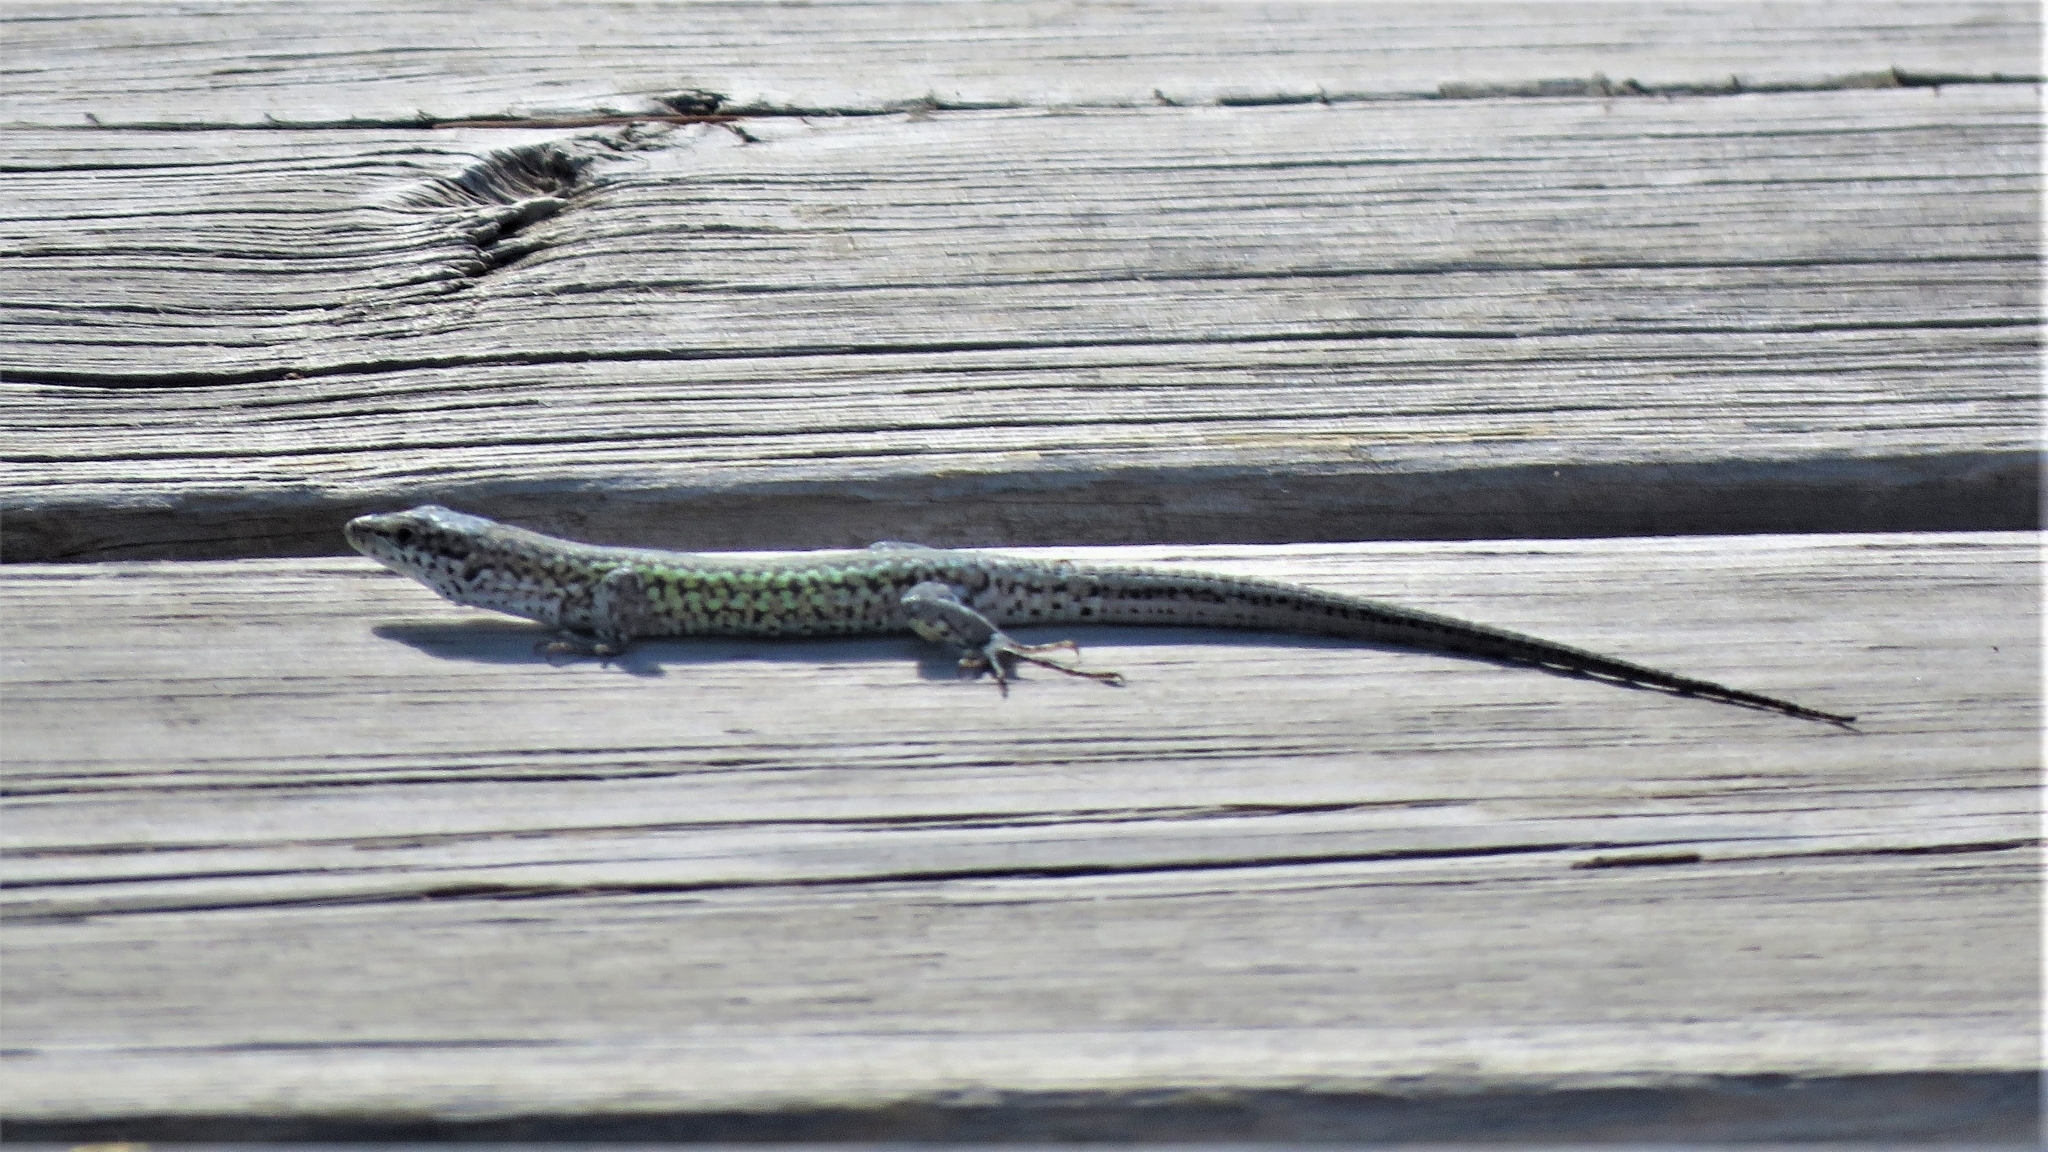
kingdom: Animalia
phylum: Chordata
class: Squamata
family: Lacertidae
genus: Podarcis
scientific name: Podarcis carbonelli
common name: Carbonelli's wall lizard
